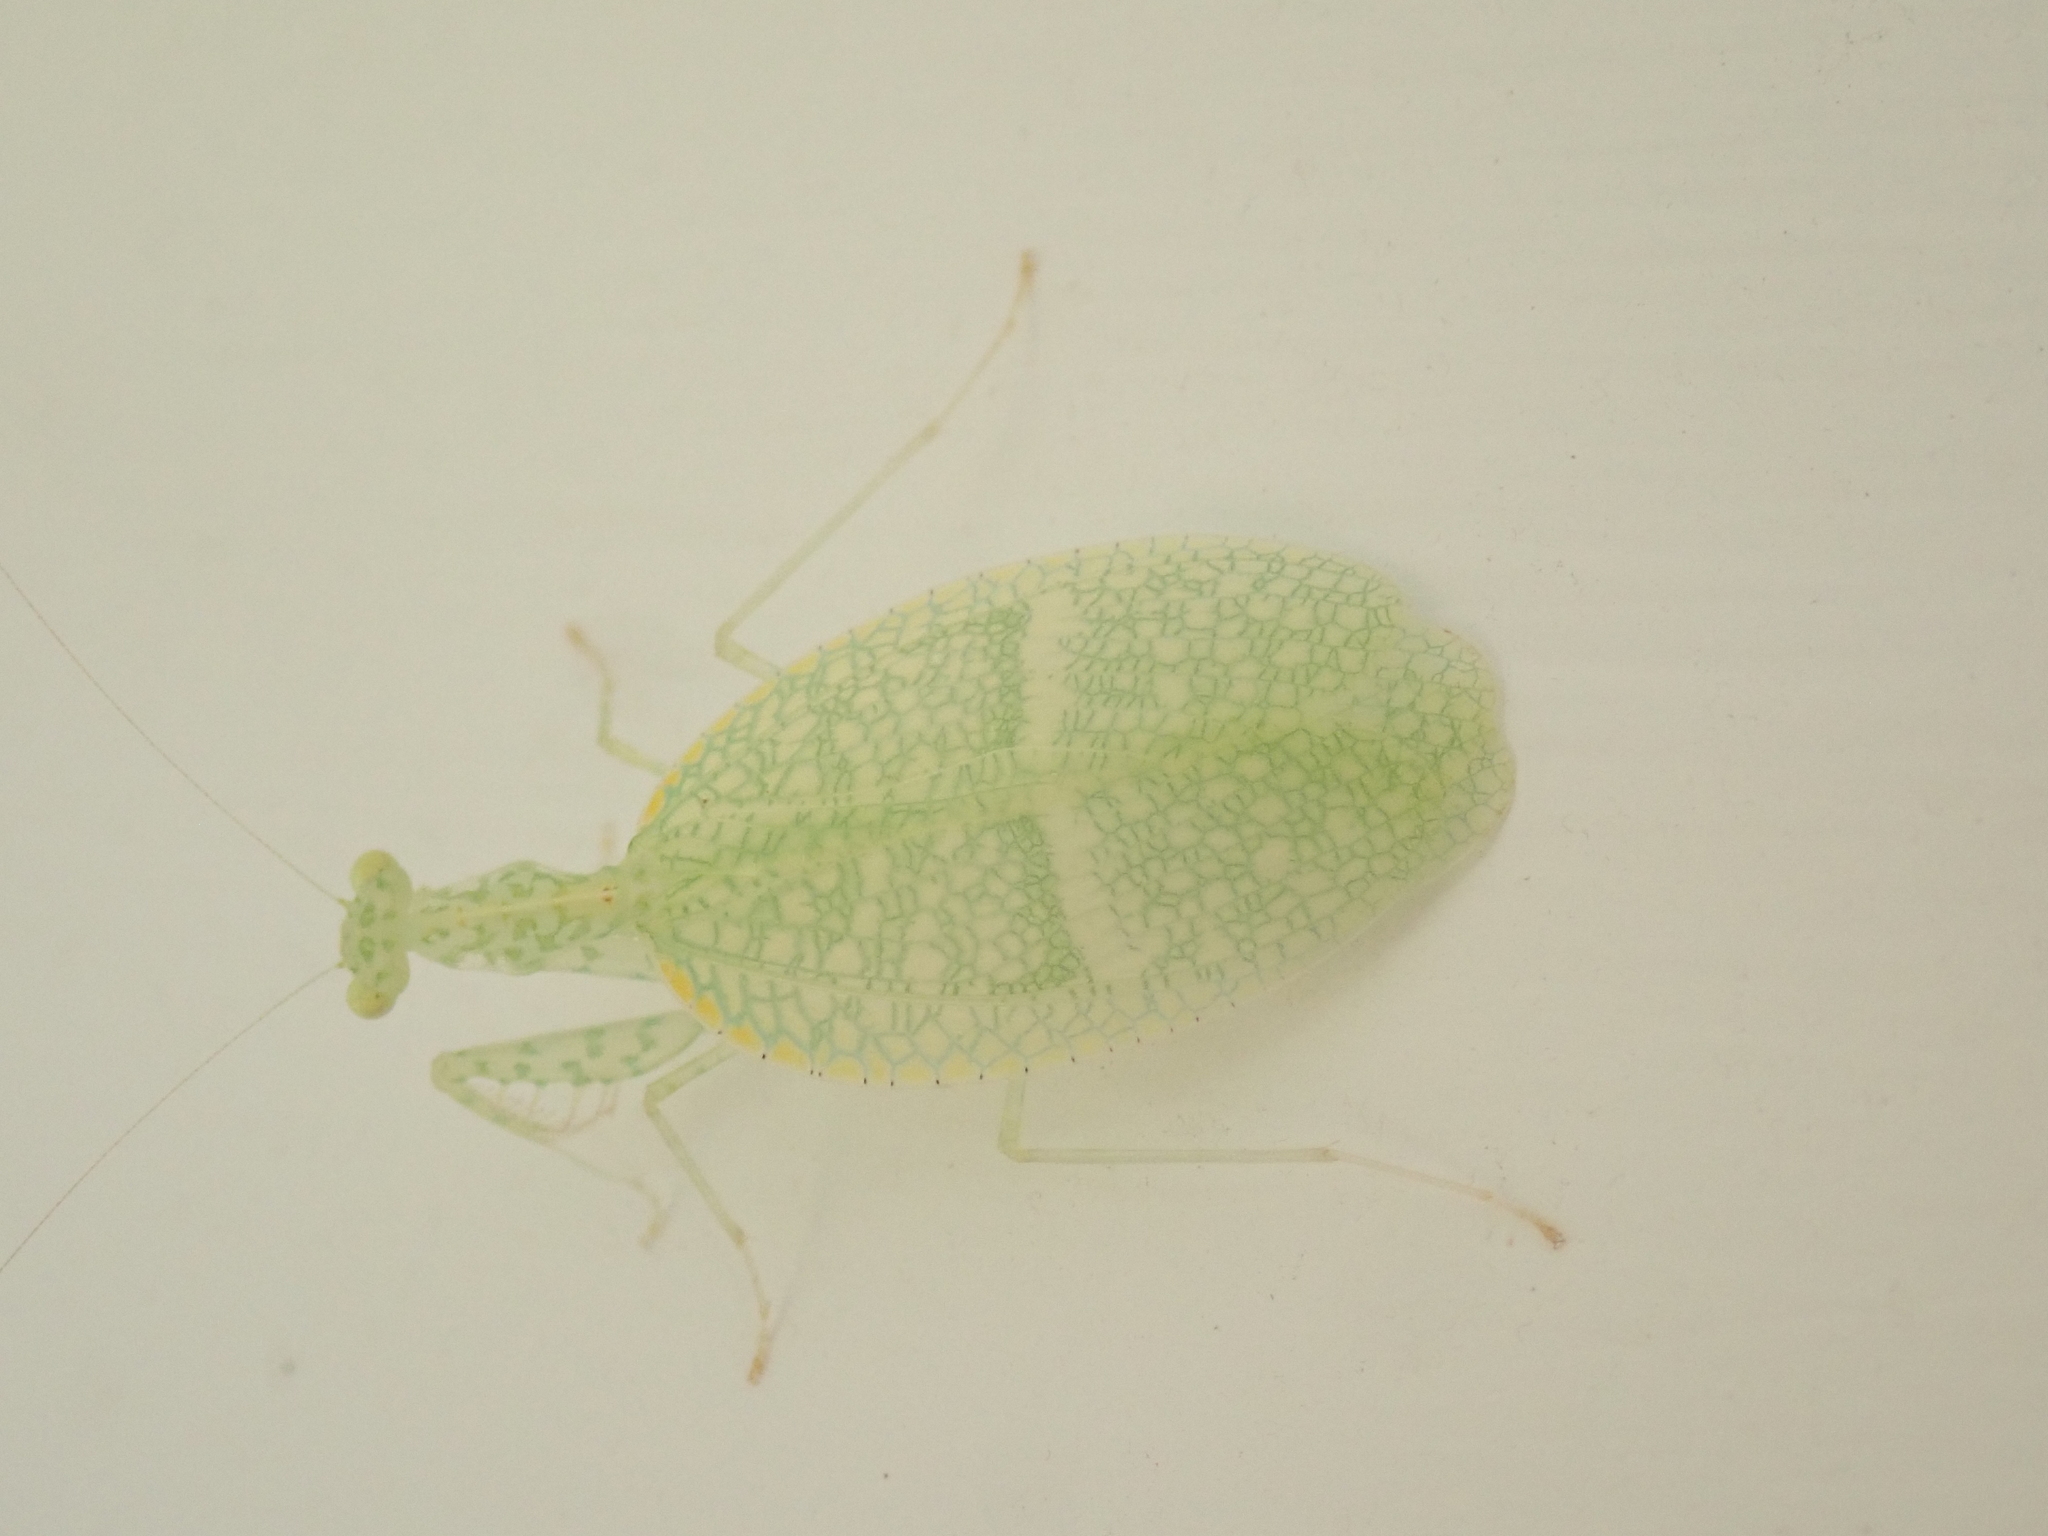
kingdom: Animalia
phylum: Arthropoda
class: Insecta
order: Mantodea
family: Nanomantidae
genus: Neomantis
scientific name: Neomantis australis
